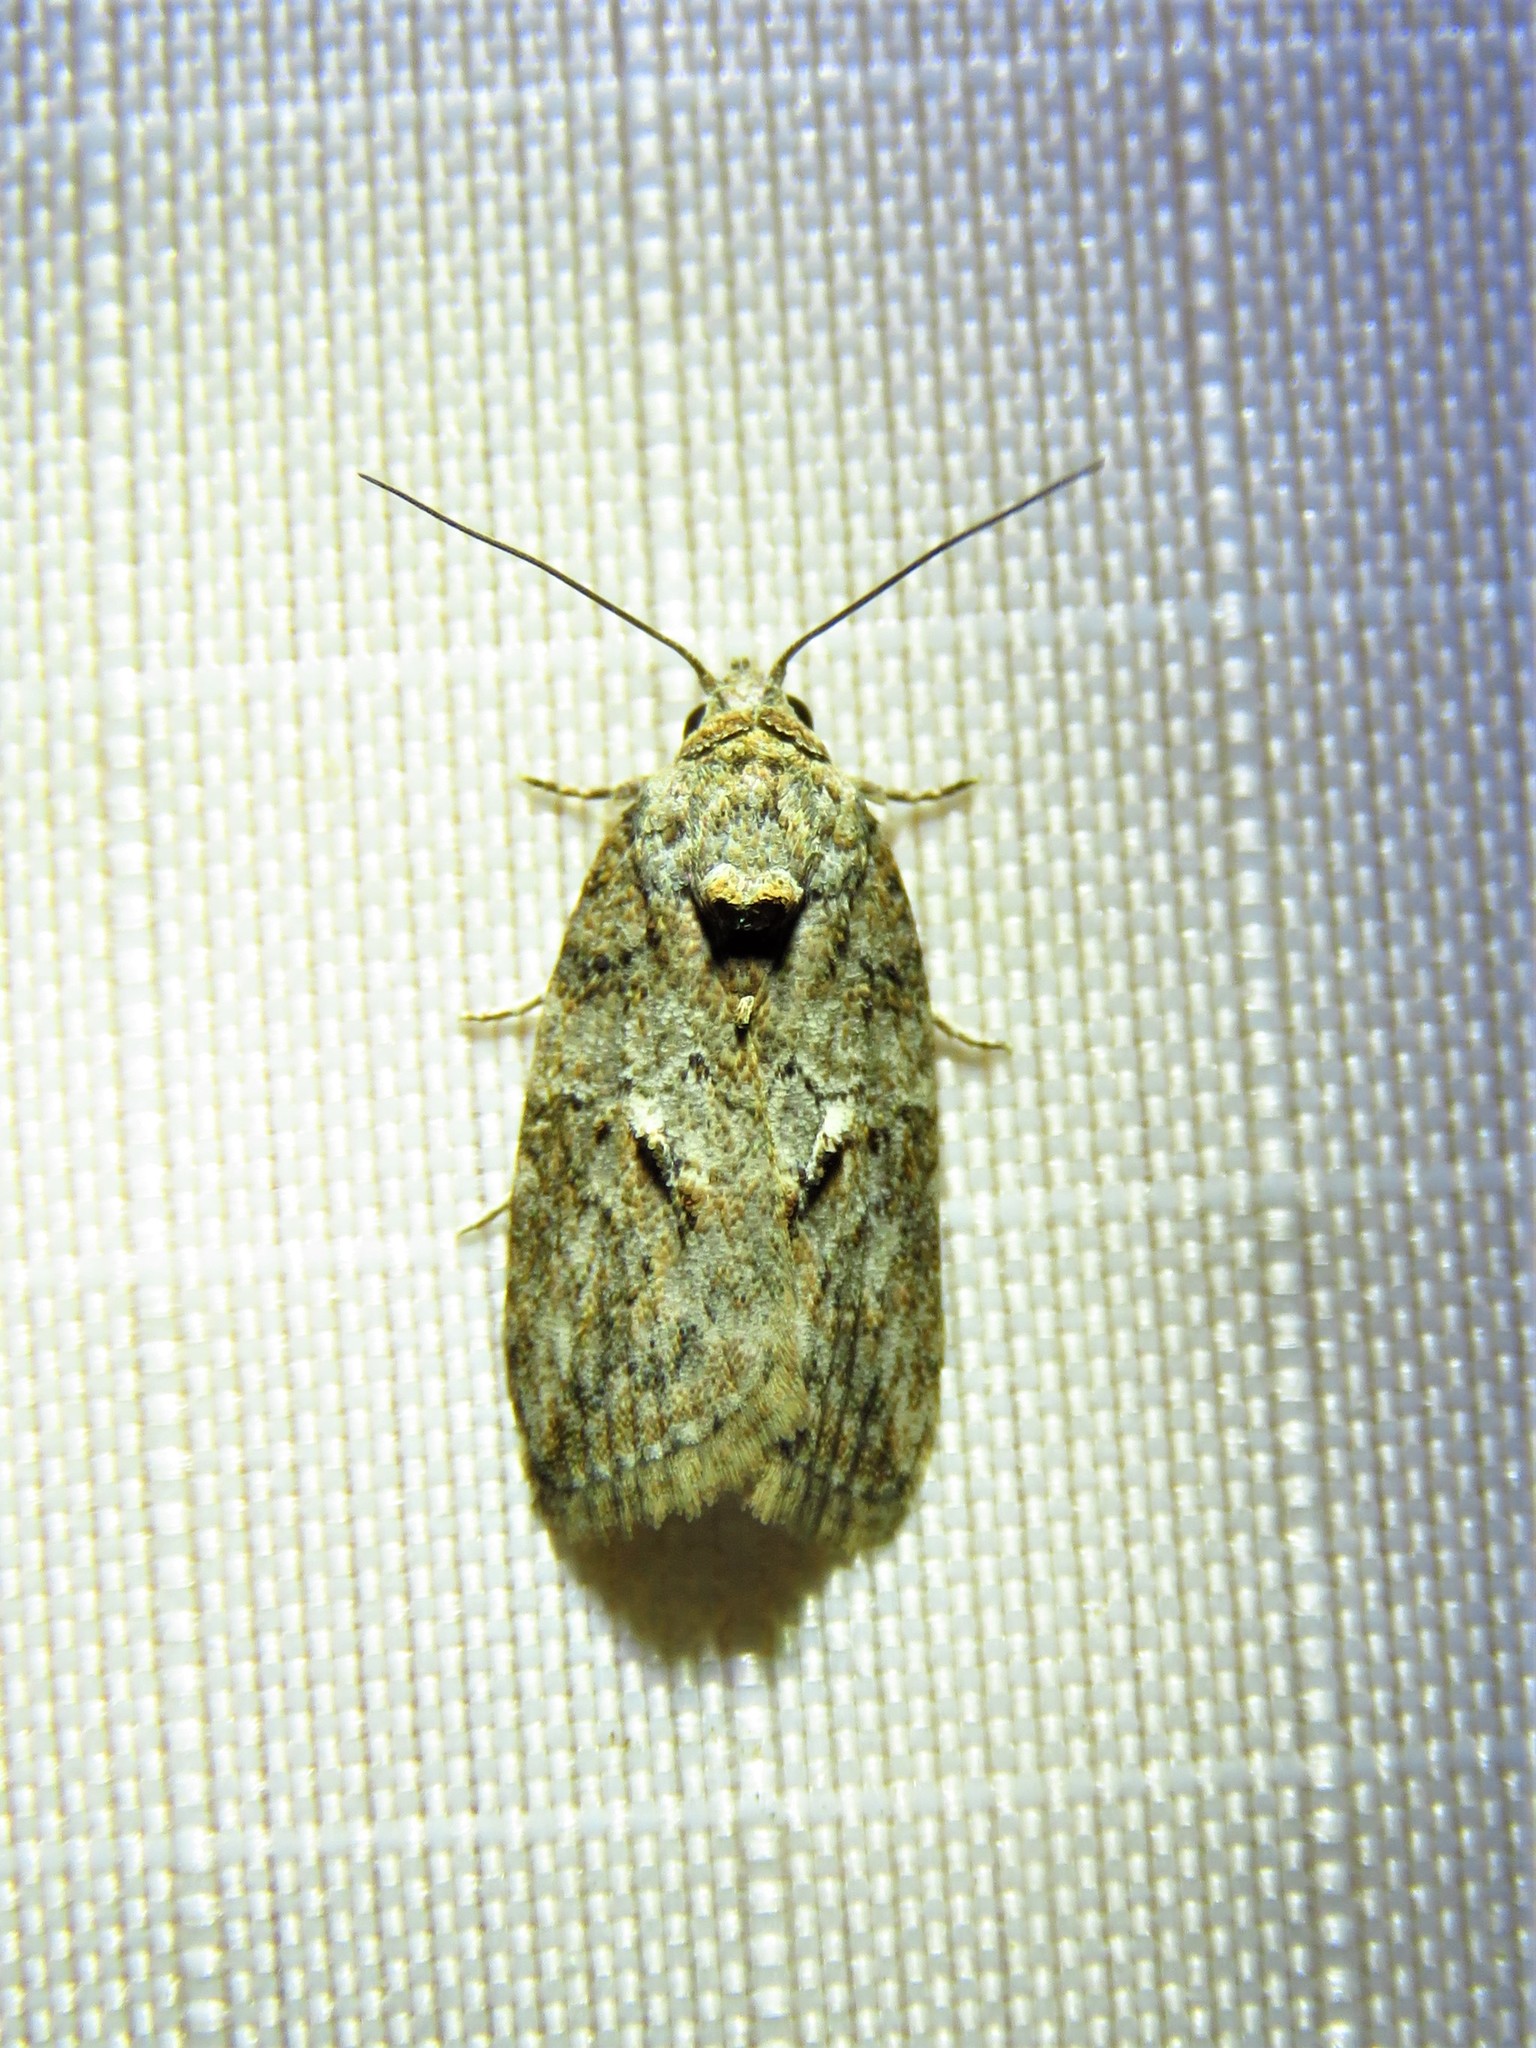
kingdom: Animalia
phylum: Arthropoda
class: Insecta
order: Lepidoptera
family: Nolidae
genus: Garella
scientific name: Garella nilotica
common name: Black-olive caterpillar moth
